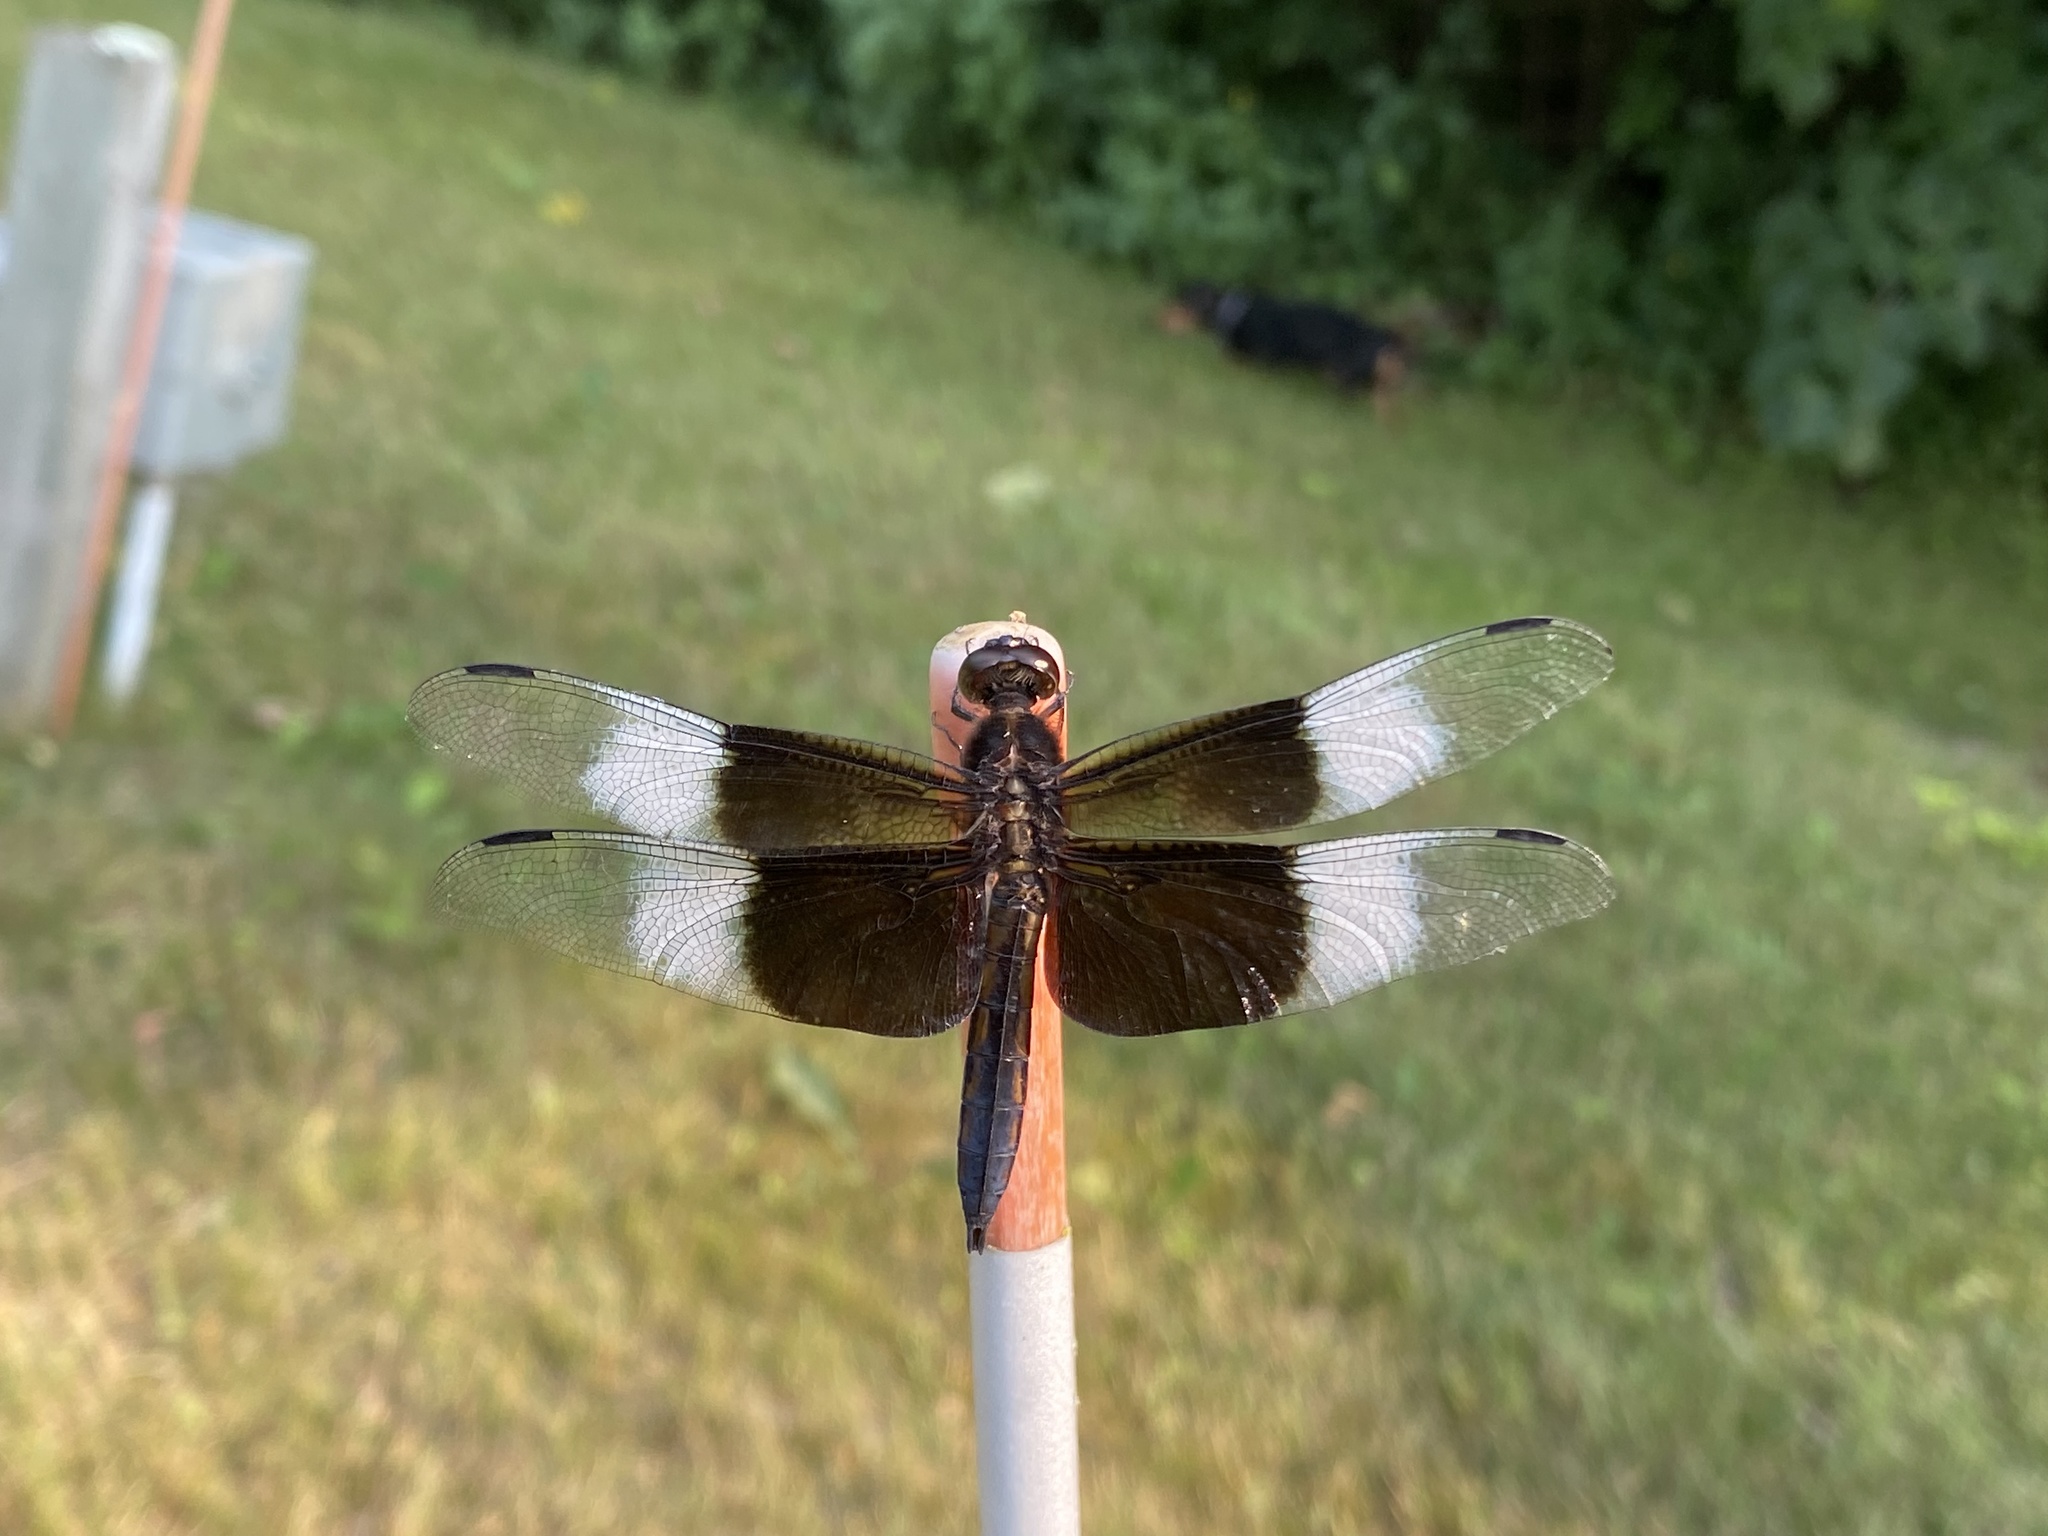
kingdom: Animalia
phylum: Arthropoda
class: Insecta
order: Odonata
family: Libellulidae
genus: Libellula
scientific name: Libellula luctuosa
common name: Widow skimmer
